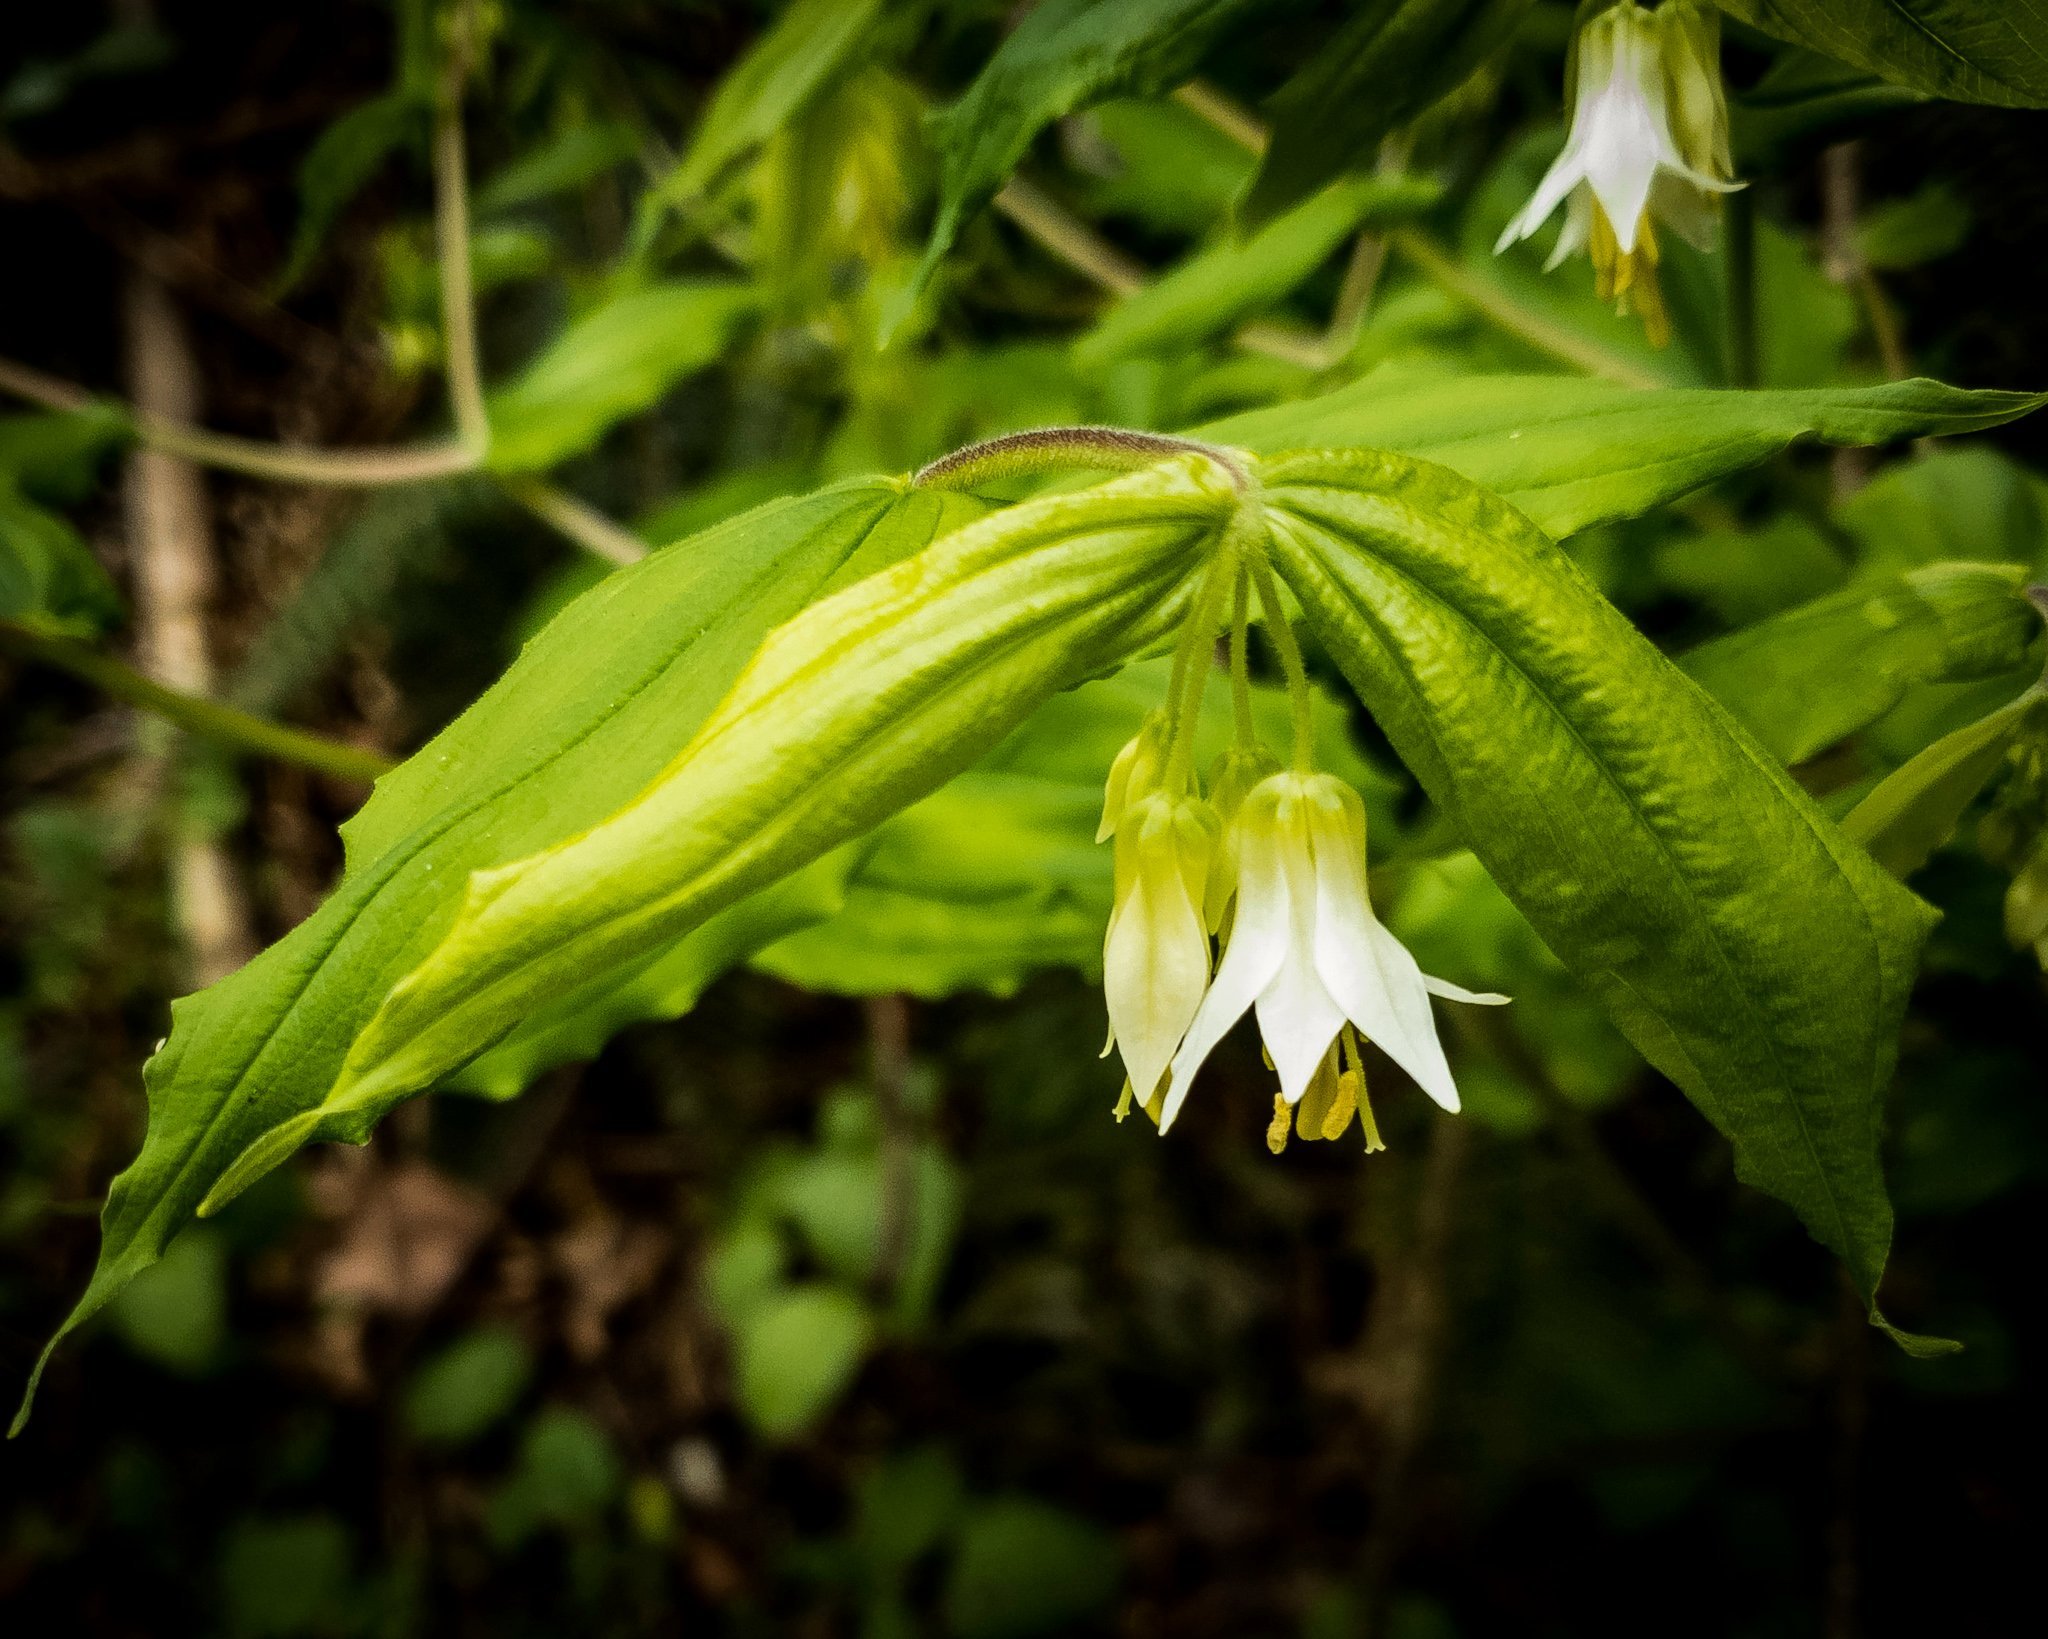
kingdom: Plantae
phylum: Tracheophyta
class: Liliopsida
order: Liliales
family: Liliaceae
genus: Prosartes
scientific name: Prosartes hookeri
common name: Fairy-bells
